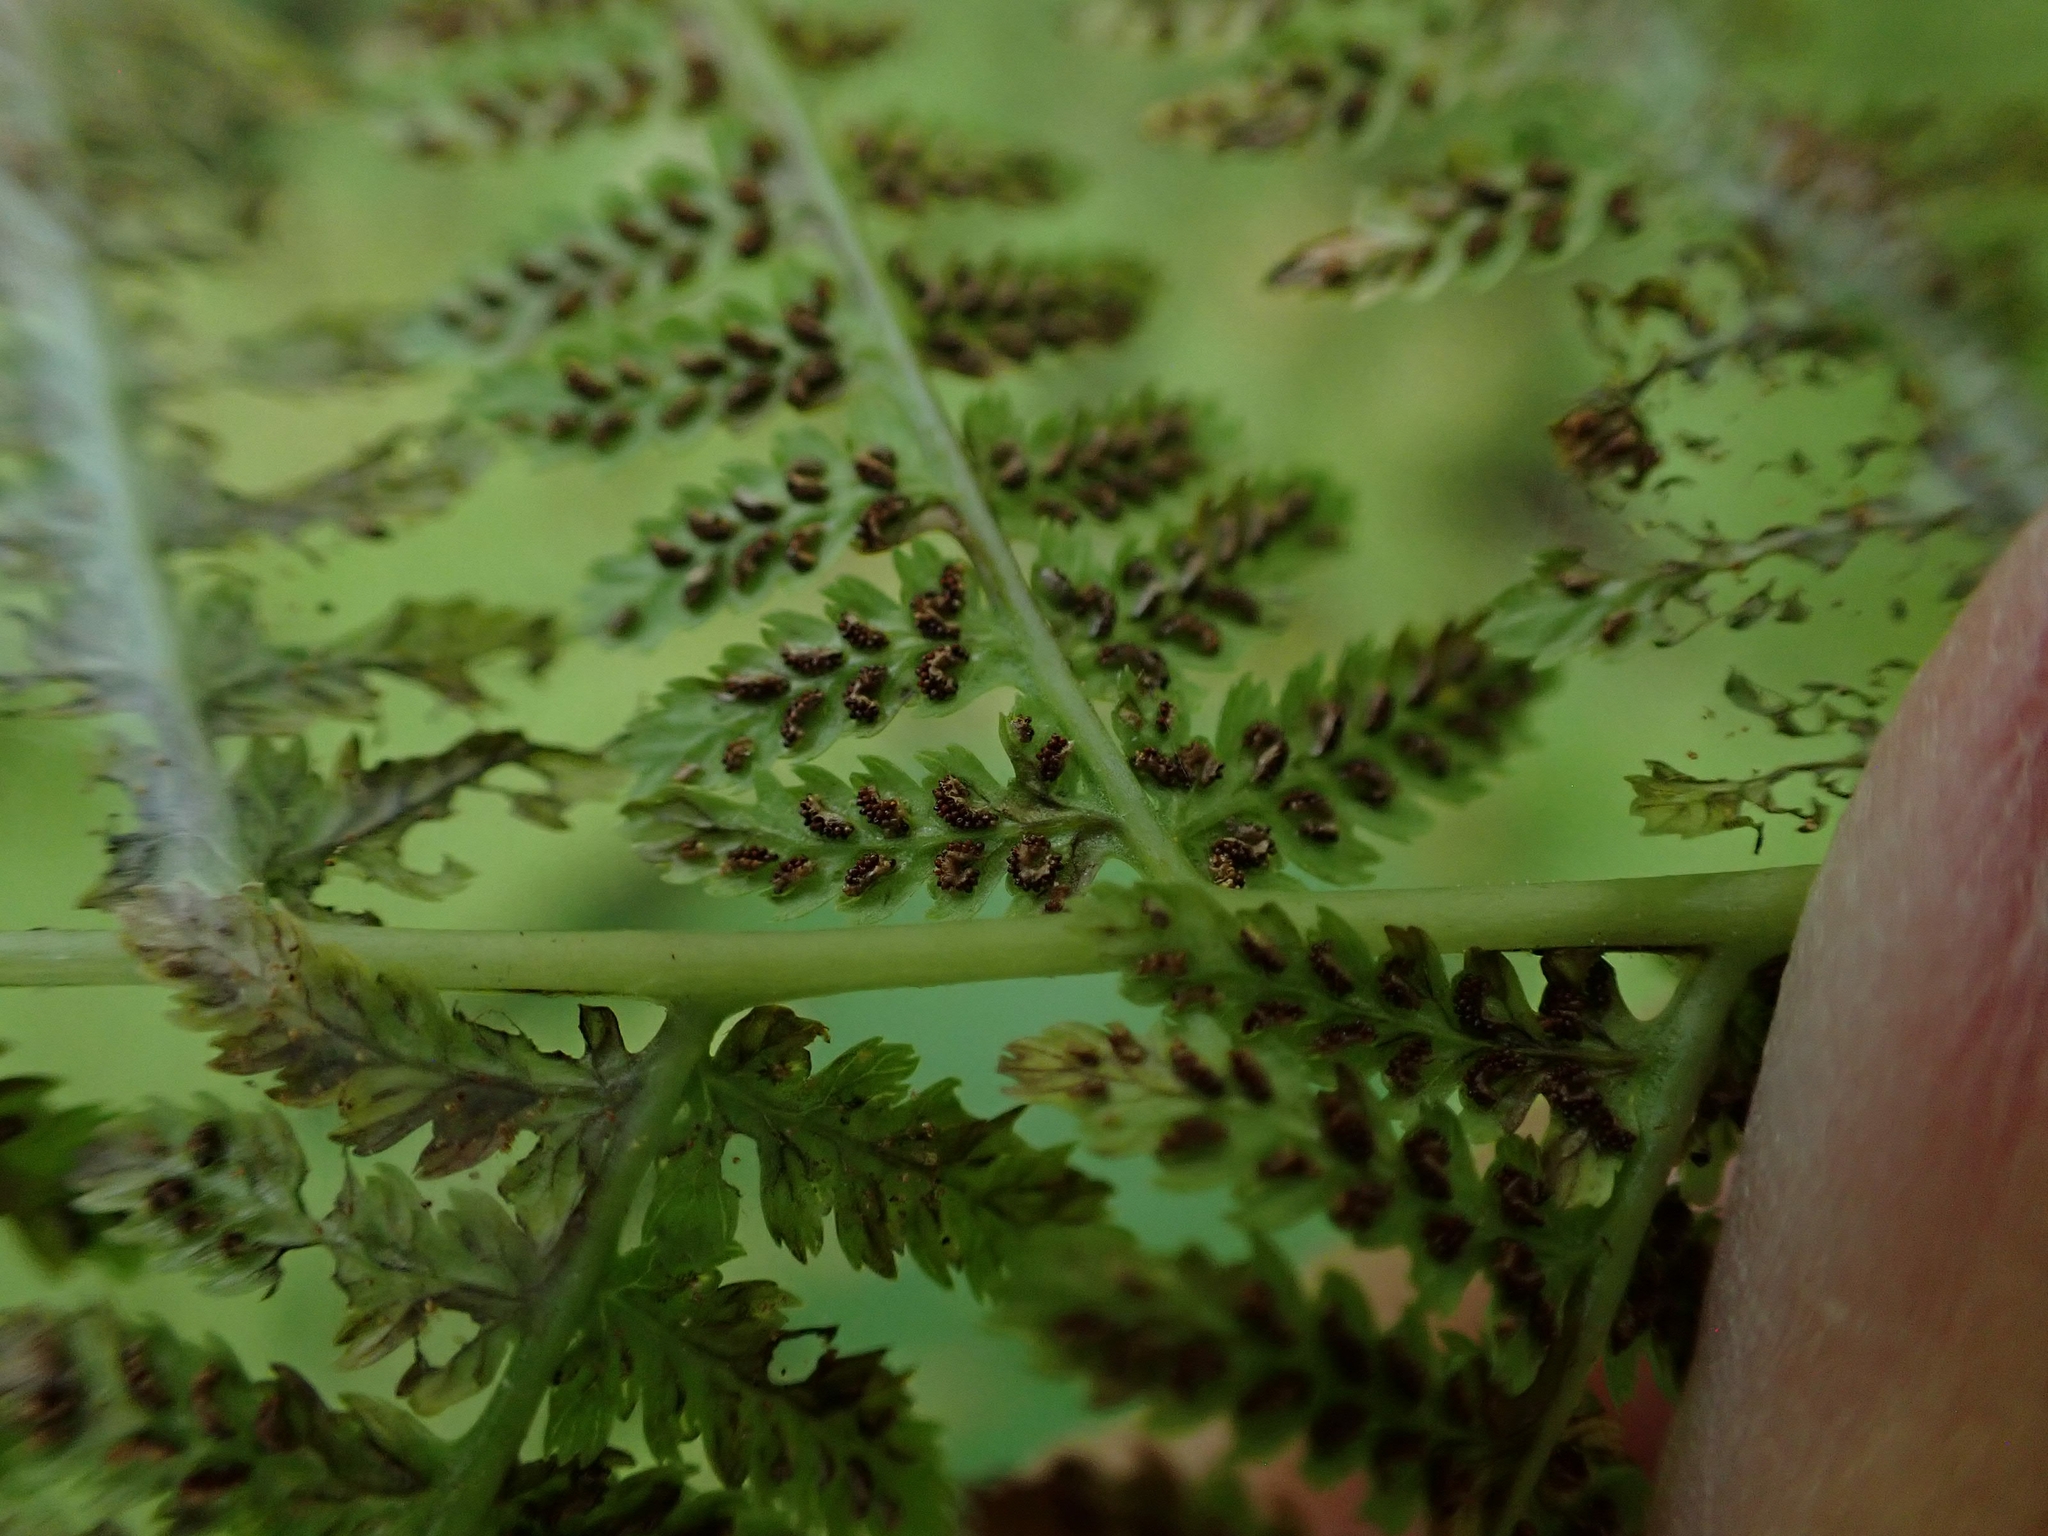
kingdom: Plantae
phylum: Tracheophyta
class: Polypodiopsida
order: Polypodiales
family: Athyriaceae
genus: Athyrium
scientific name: Athyrium angustum
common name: Northern lady fern
